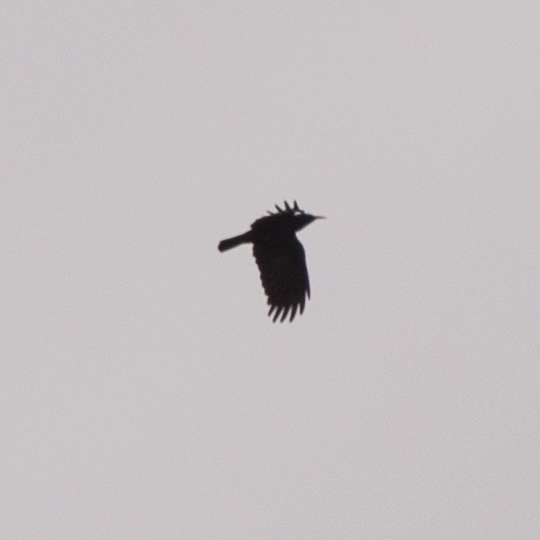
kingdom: Animalia
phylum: Chordata
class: Aves
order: Passeriformes
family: Corvidae
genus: Pyrrhocorax
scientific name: Pyrrhocorax pyrrhocorax
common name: Red-billed chough
